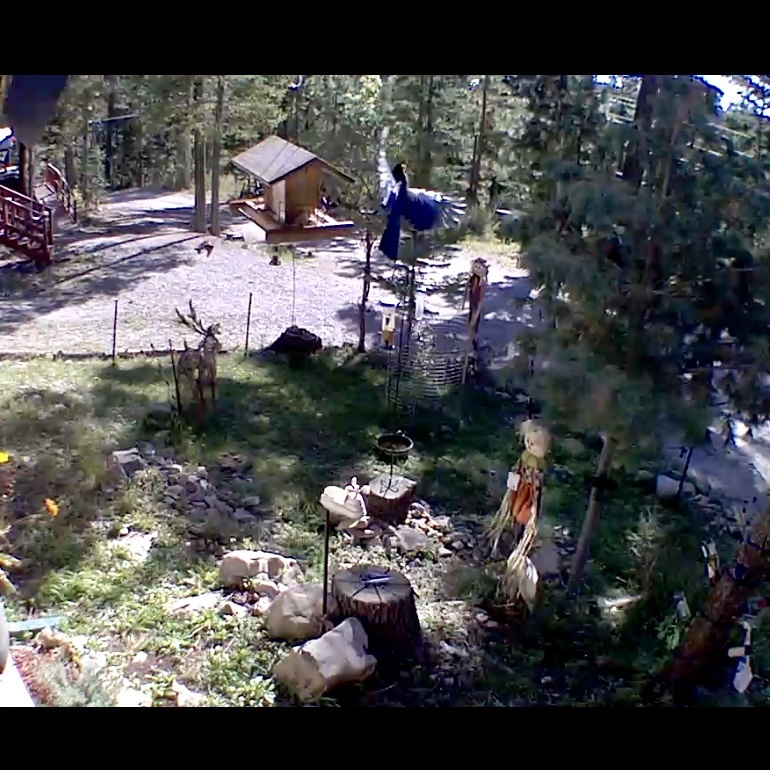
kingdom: Animalia
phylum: Chordata
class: Aves
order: Passeriformes
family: Corvidae
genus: Cyanocitta
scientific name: Cyanocitta stelleri
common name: Steller's jay
